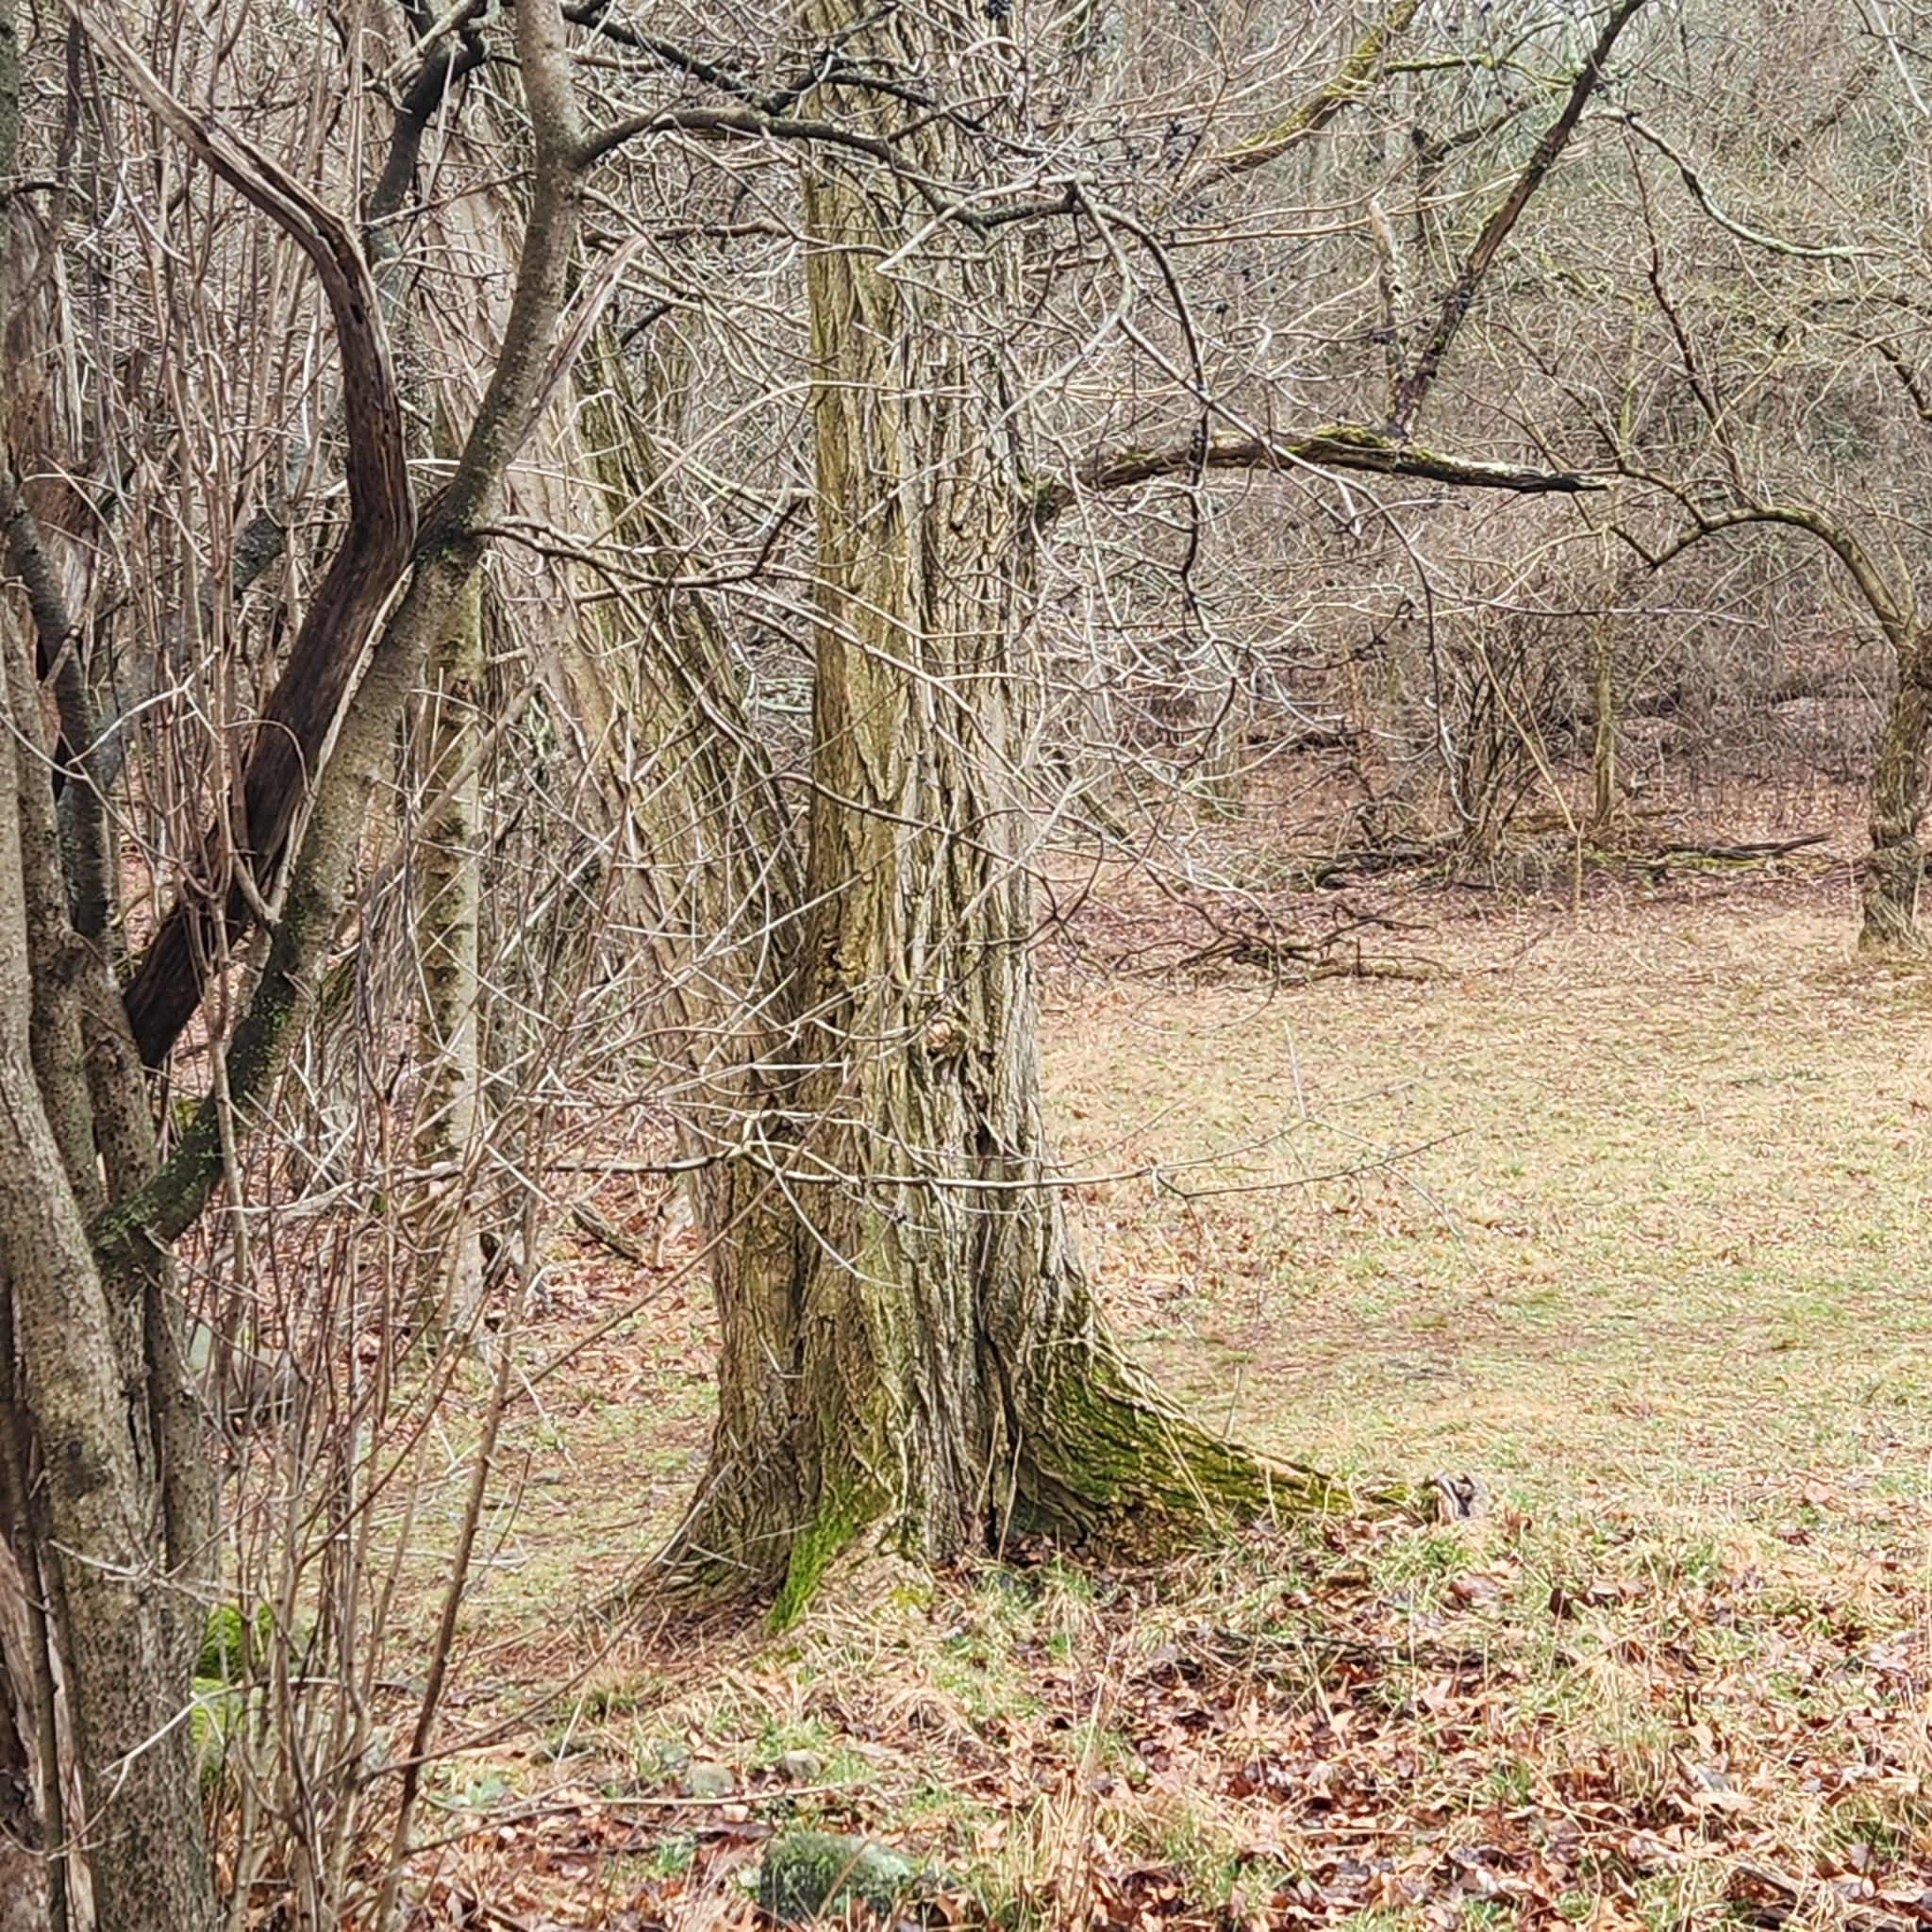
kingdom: Plantae
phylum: Tracheophyta
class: Magnoliopsida
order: Fabales
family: Fabaceae
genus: Robinia
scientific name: Robinia pseudoacacia
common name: Black locust
